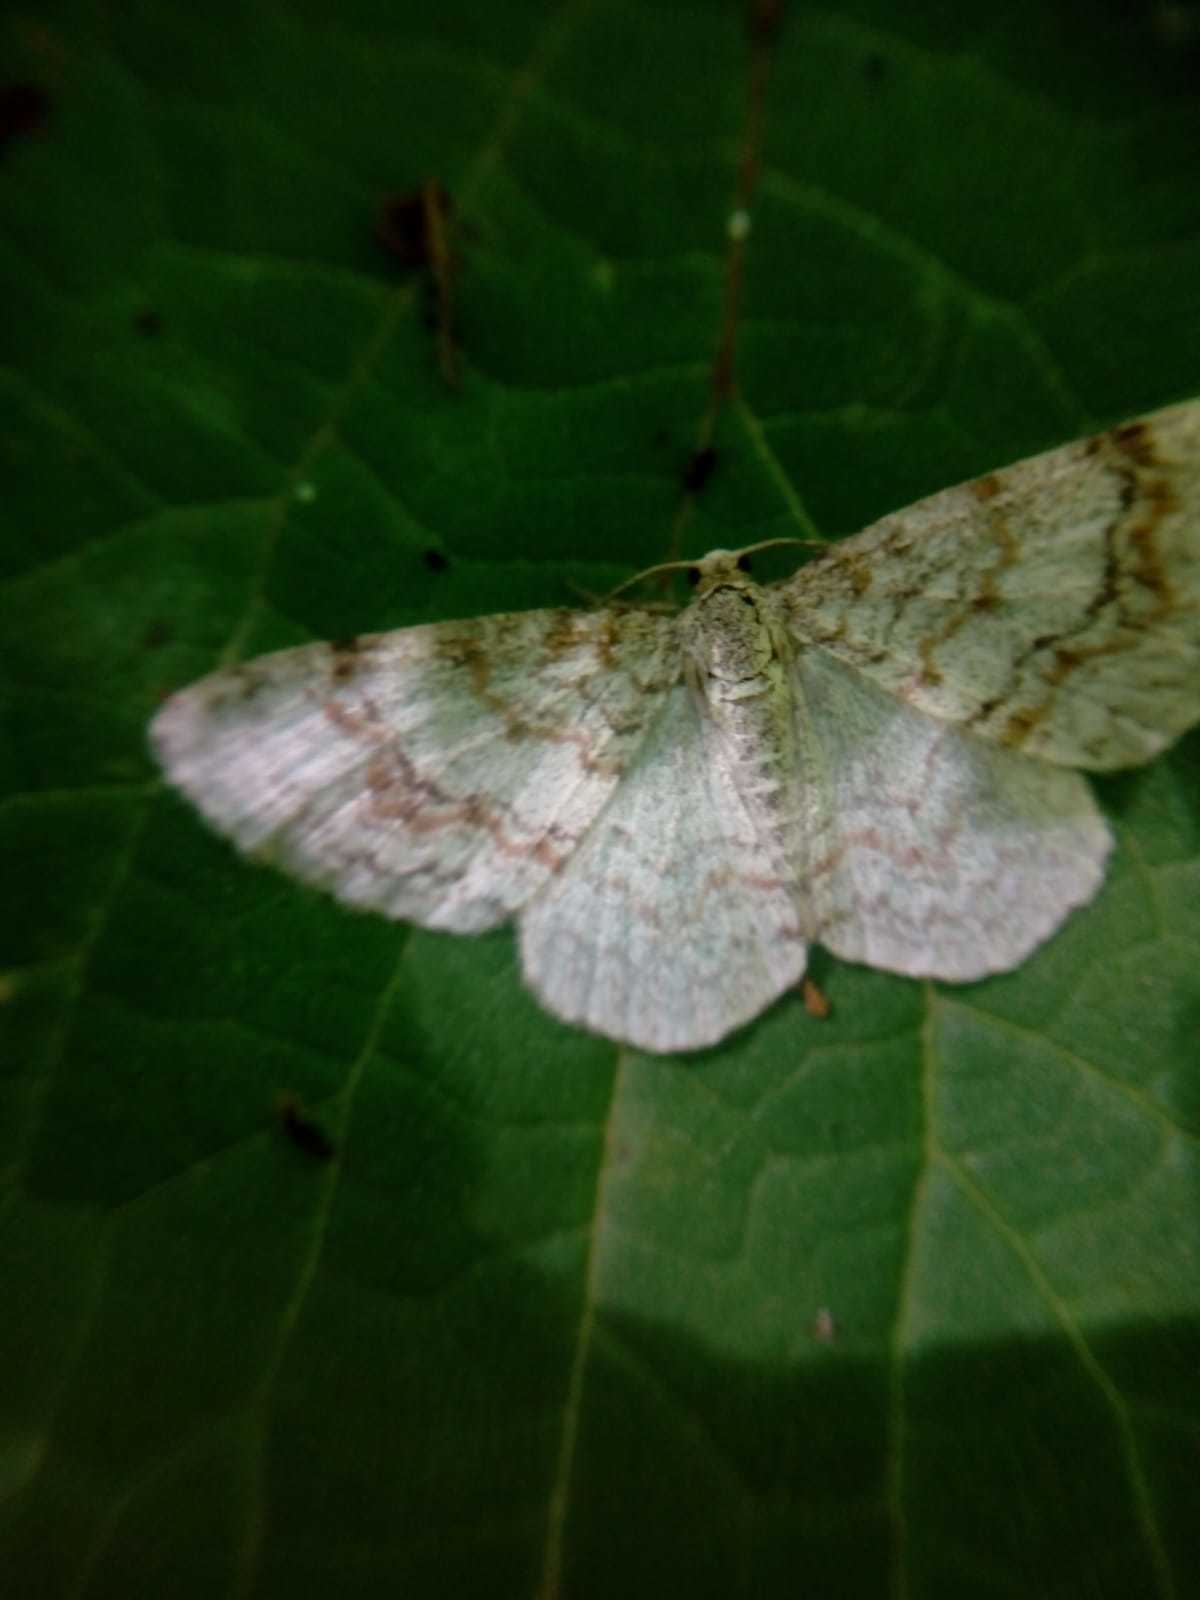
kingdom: Animalia
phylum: Arthropoda
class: Insecta
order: Lepidoptera
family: Geometridae
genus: Hydrelia
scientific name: Hydrelia sylvata
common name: Waved carpet
